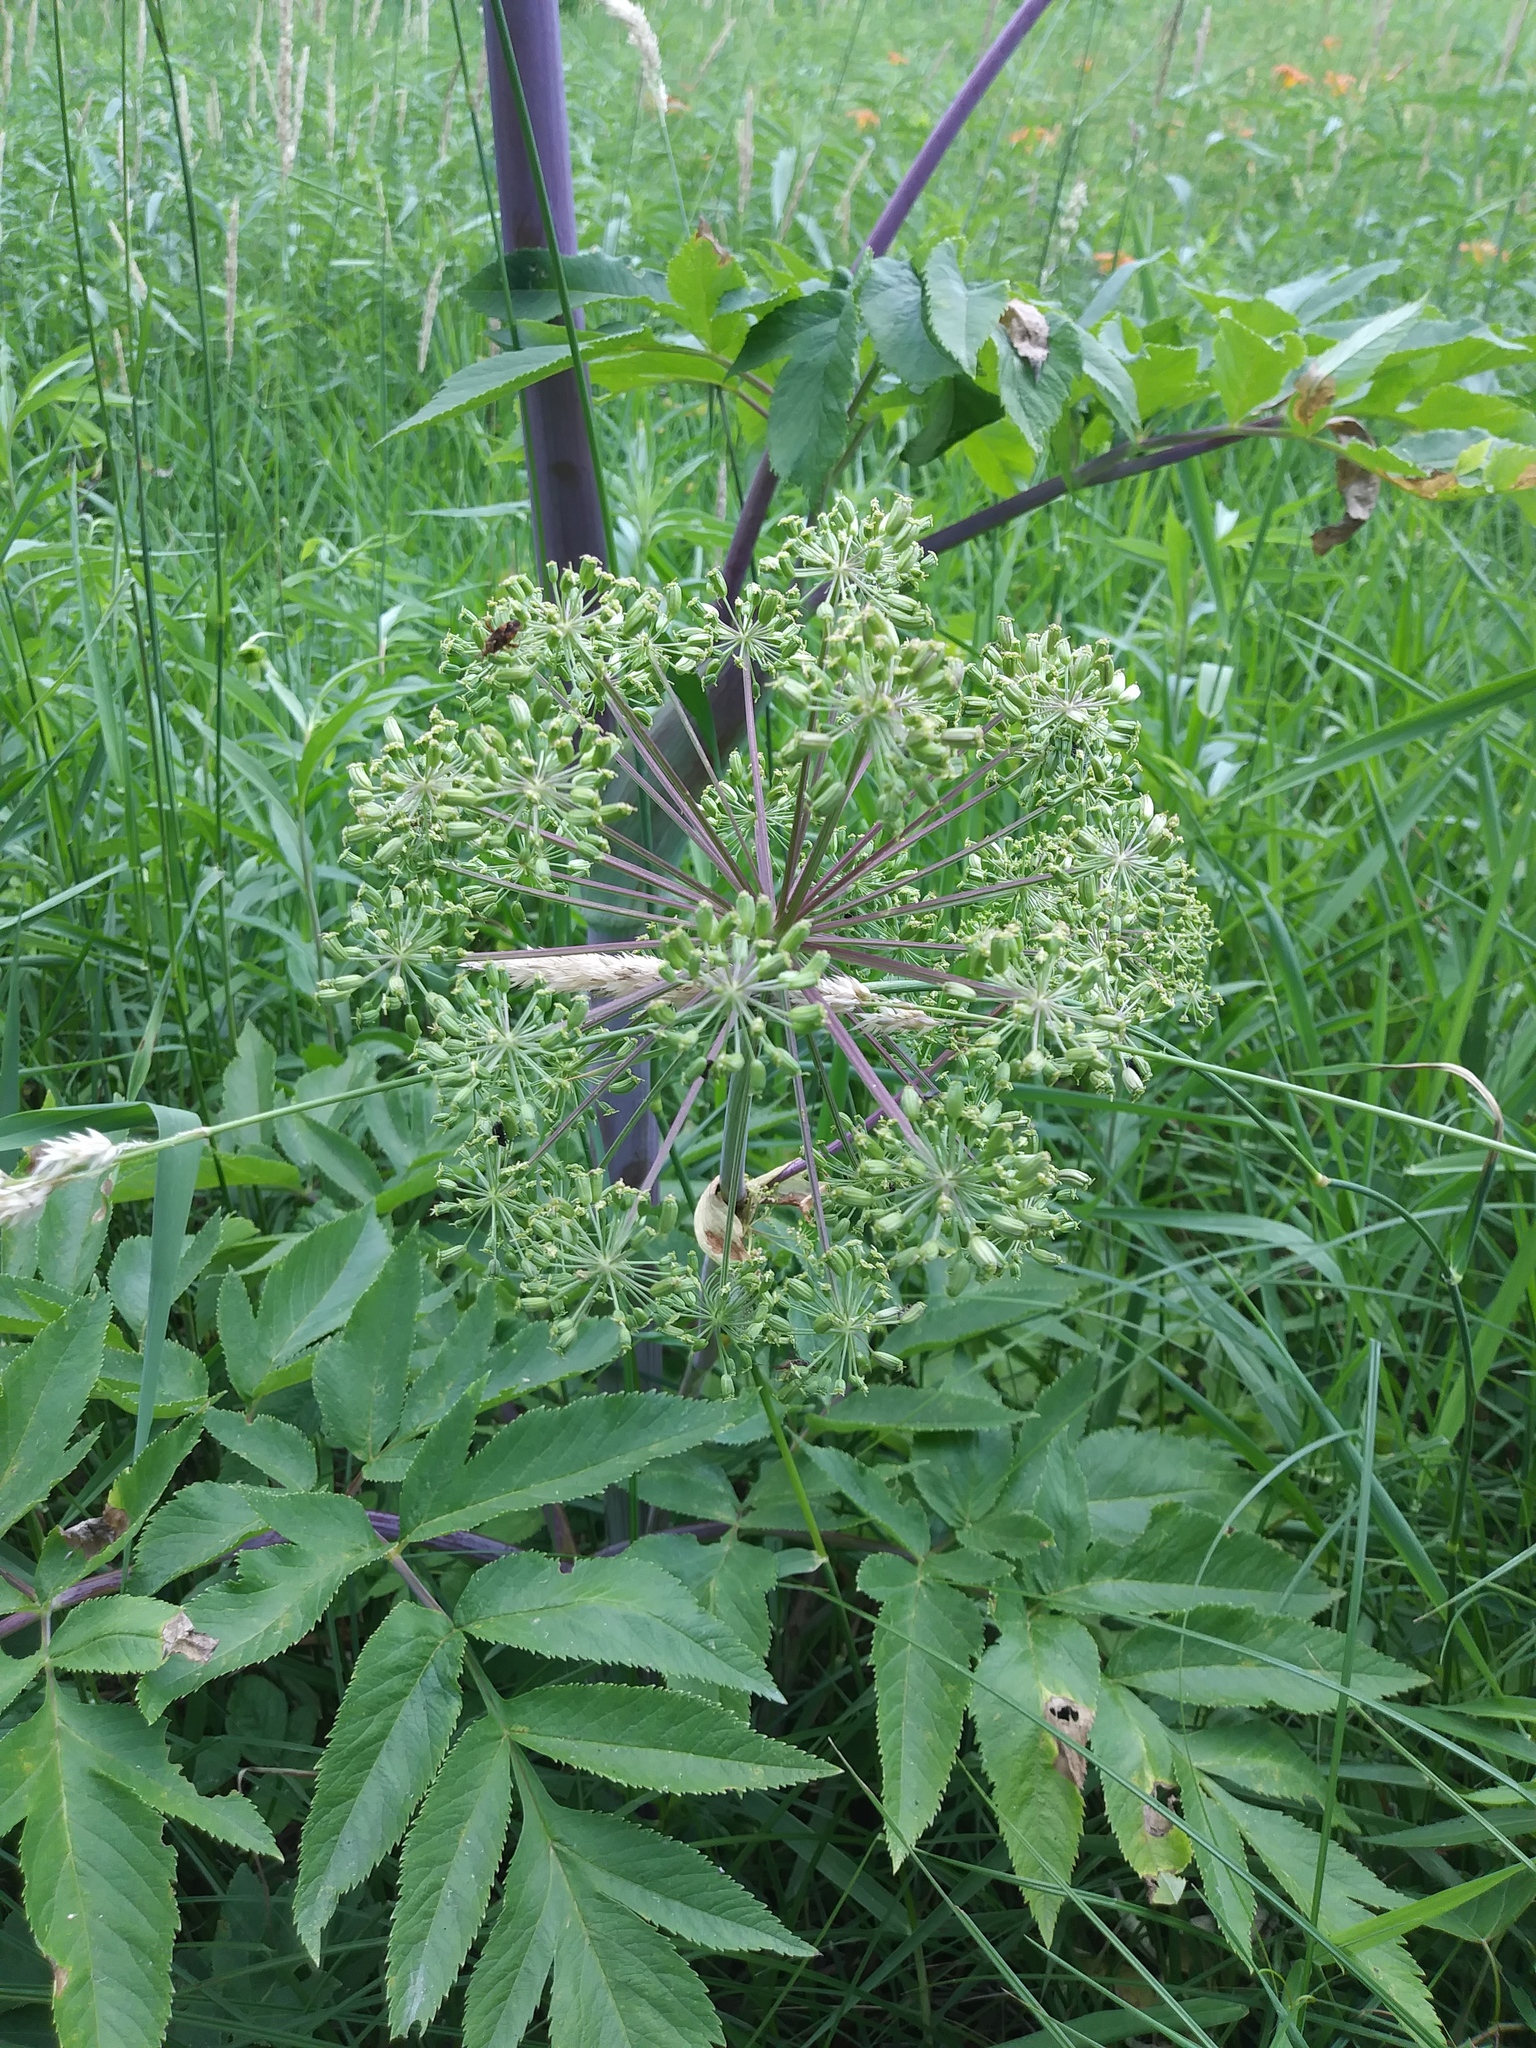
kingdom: Plantae
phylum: Tracheophyta
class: Magnoliopsida
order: Apiales
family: Apiaceae
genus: Angelica
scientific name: Angelica atropurpurea
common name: Great angelica
